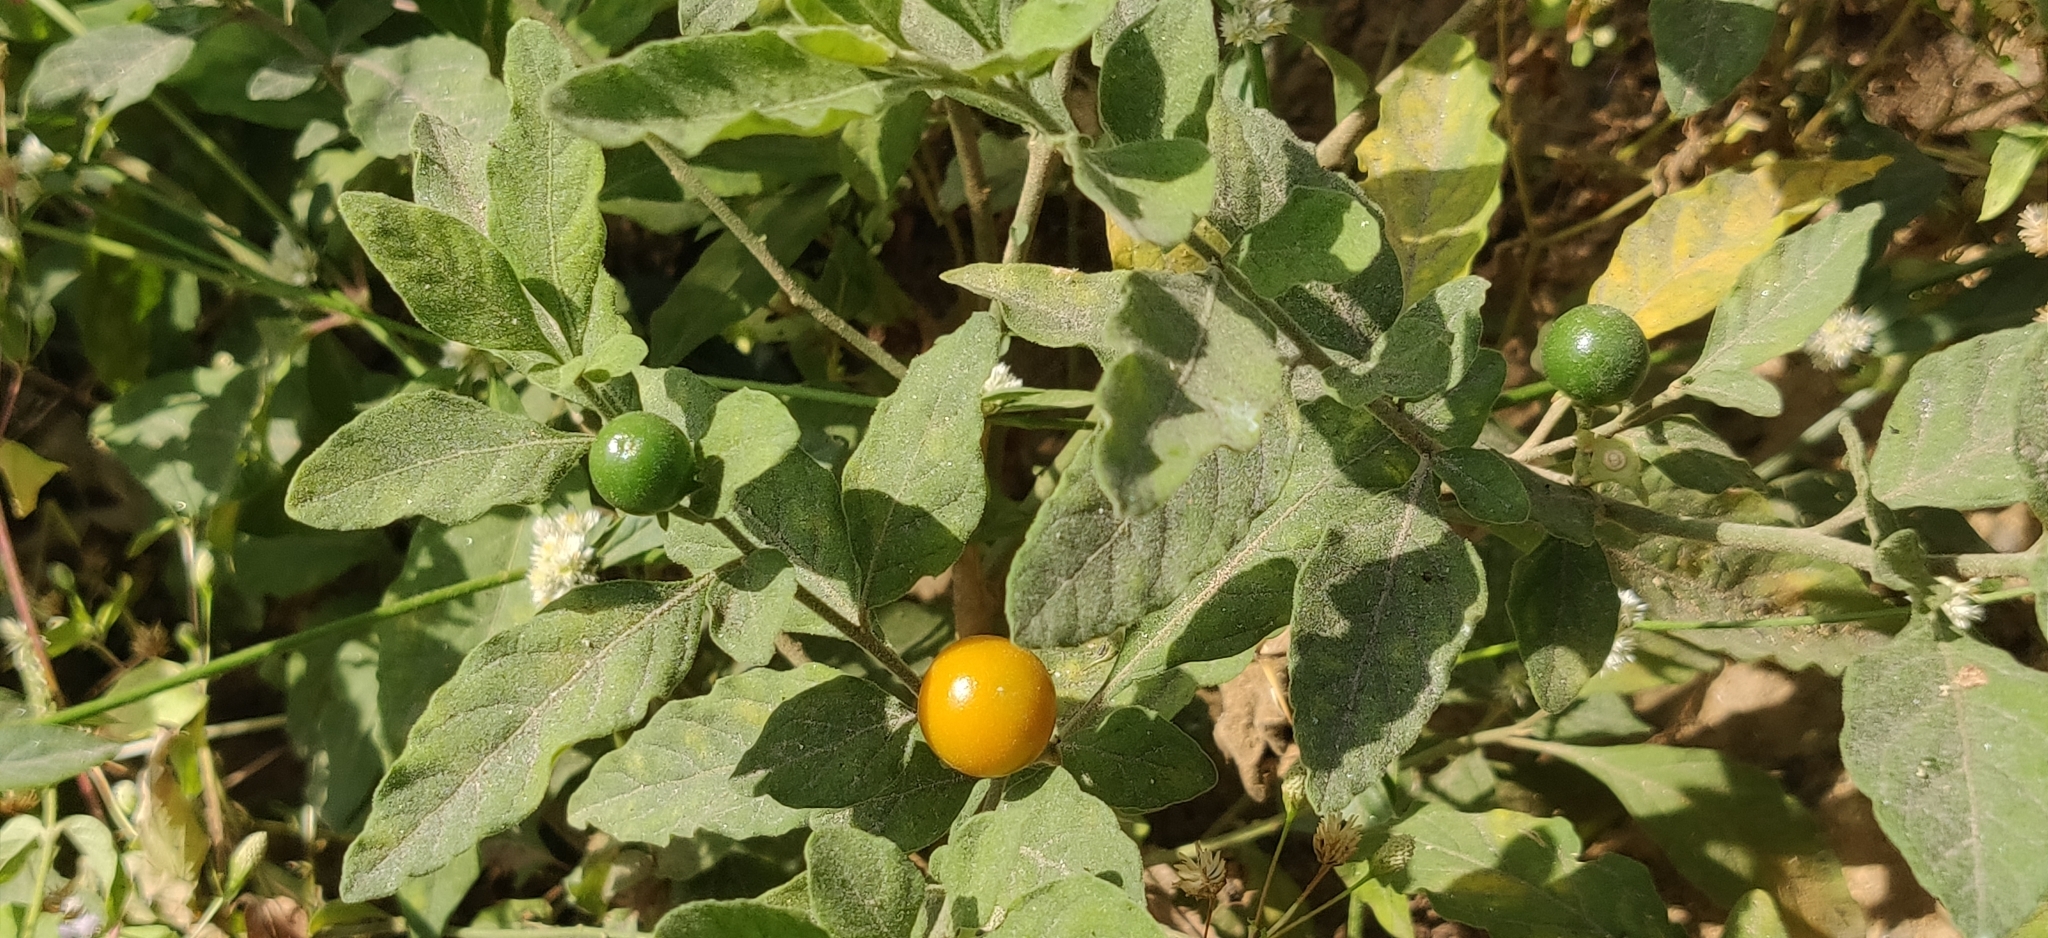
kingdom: Plantae
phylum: Tracheophyta
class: Magnoliopsida
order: Solanales
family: Solanaceae
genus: Solanum
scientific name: Solanum pseudocapsicum
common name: Jerusalem cherry
